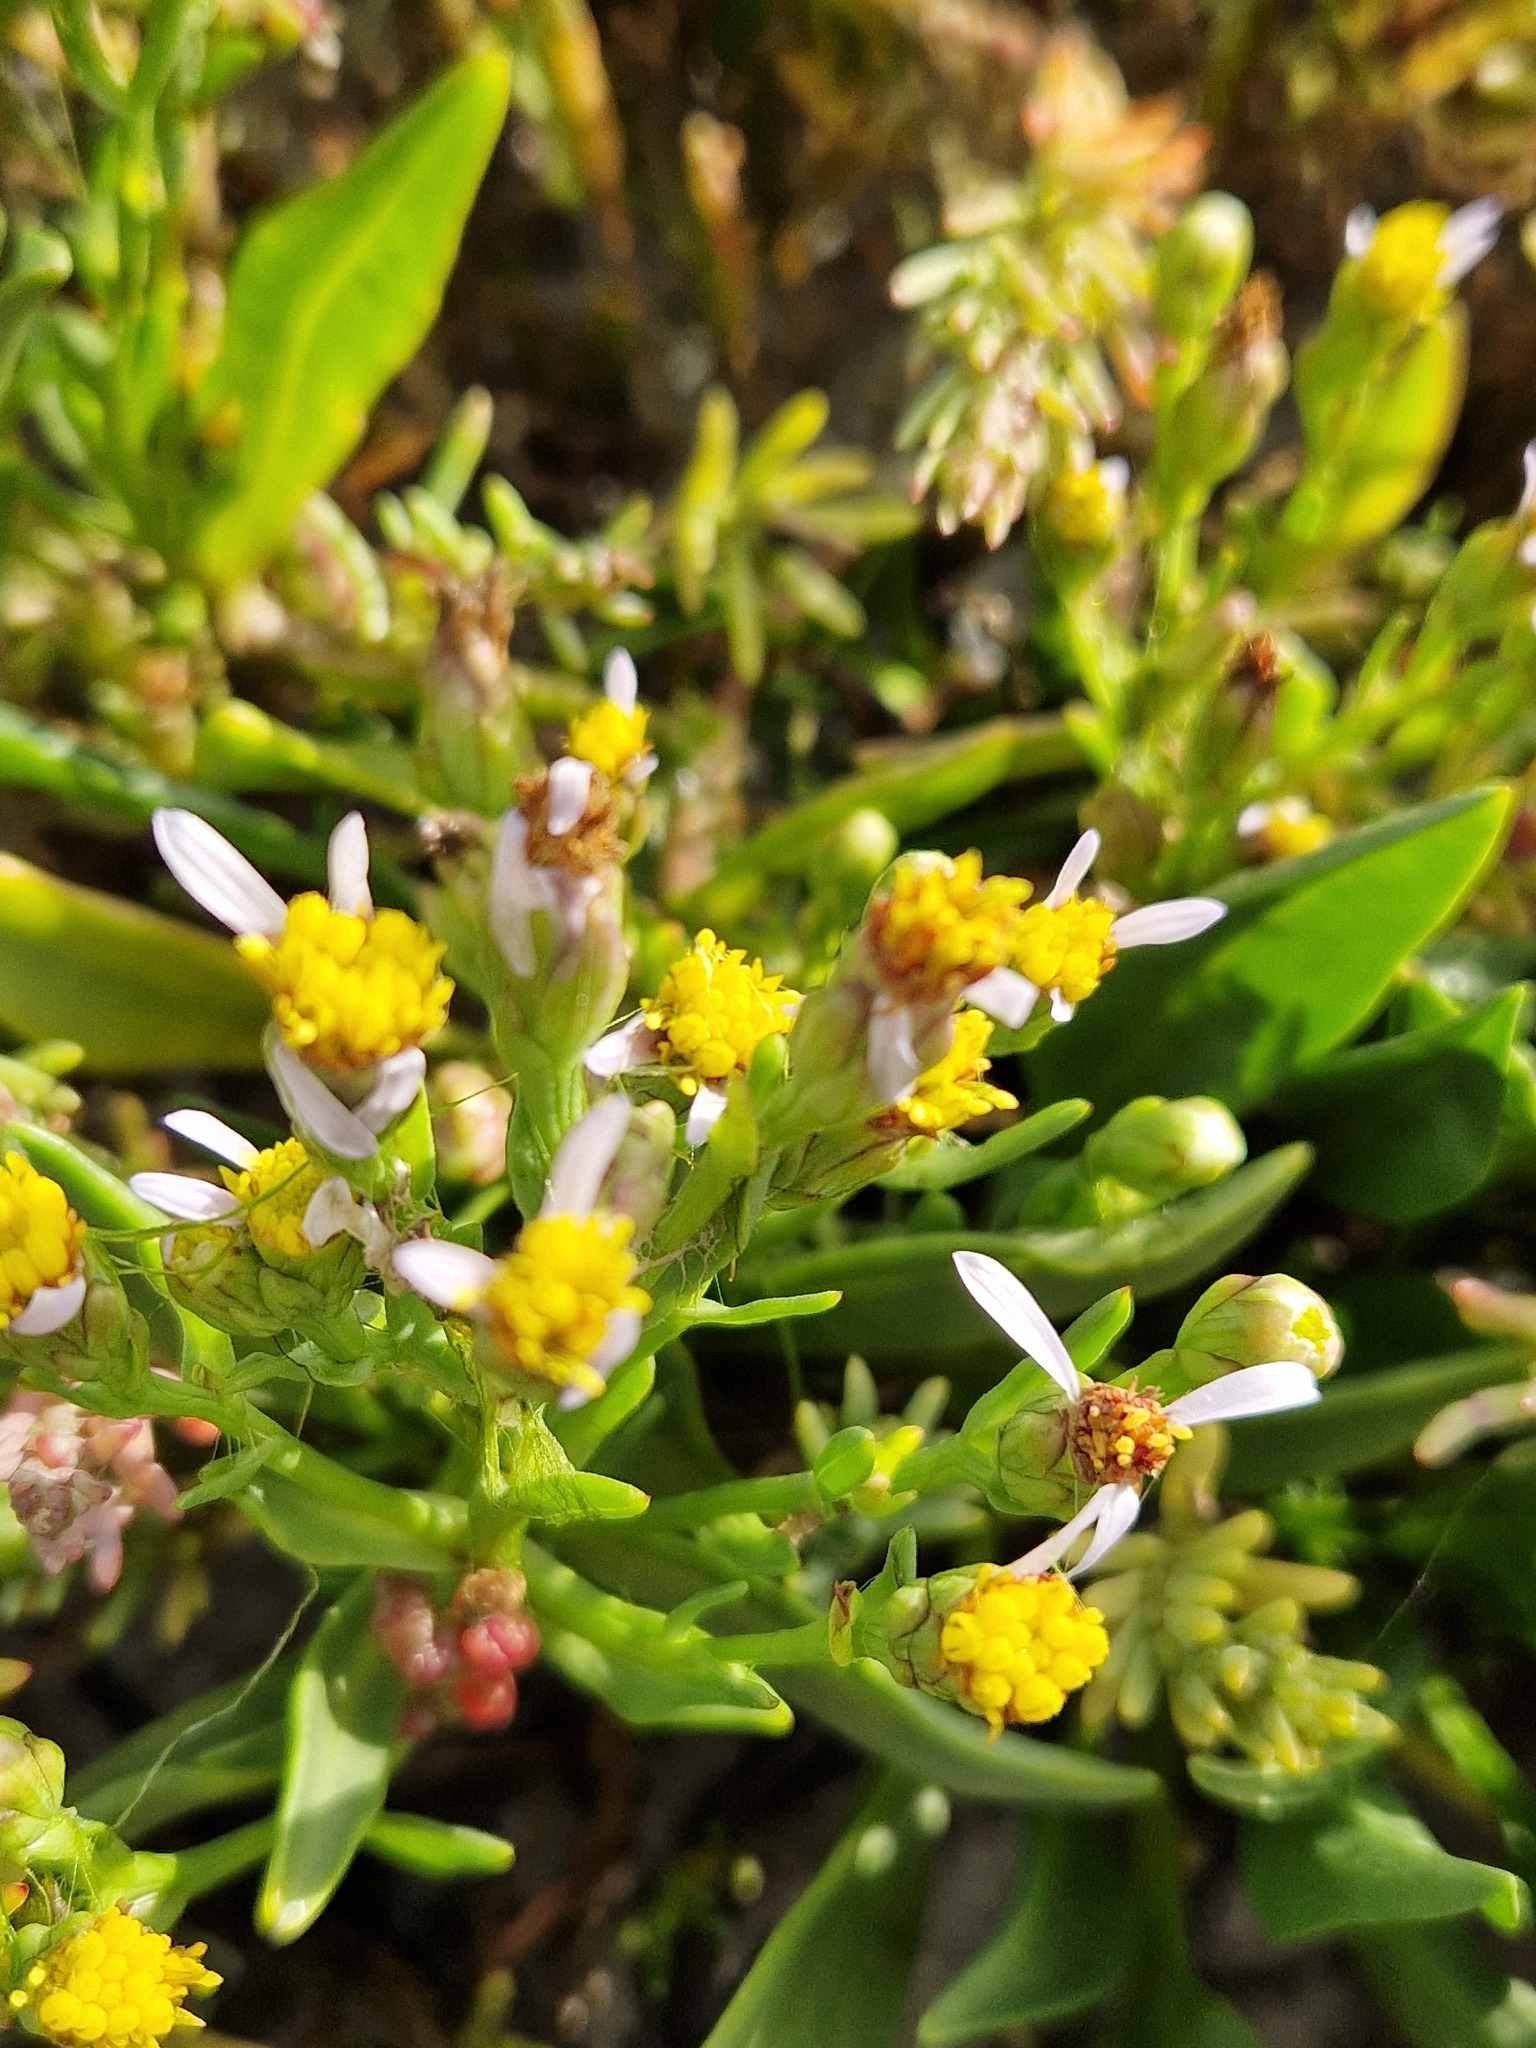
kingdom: Plantae
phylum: Tracheophyta
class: Magnoliopsida
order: Asterales
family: Asteraceae
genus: Tripolium
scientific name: Tripolium pannonicum
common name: Sea aster
